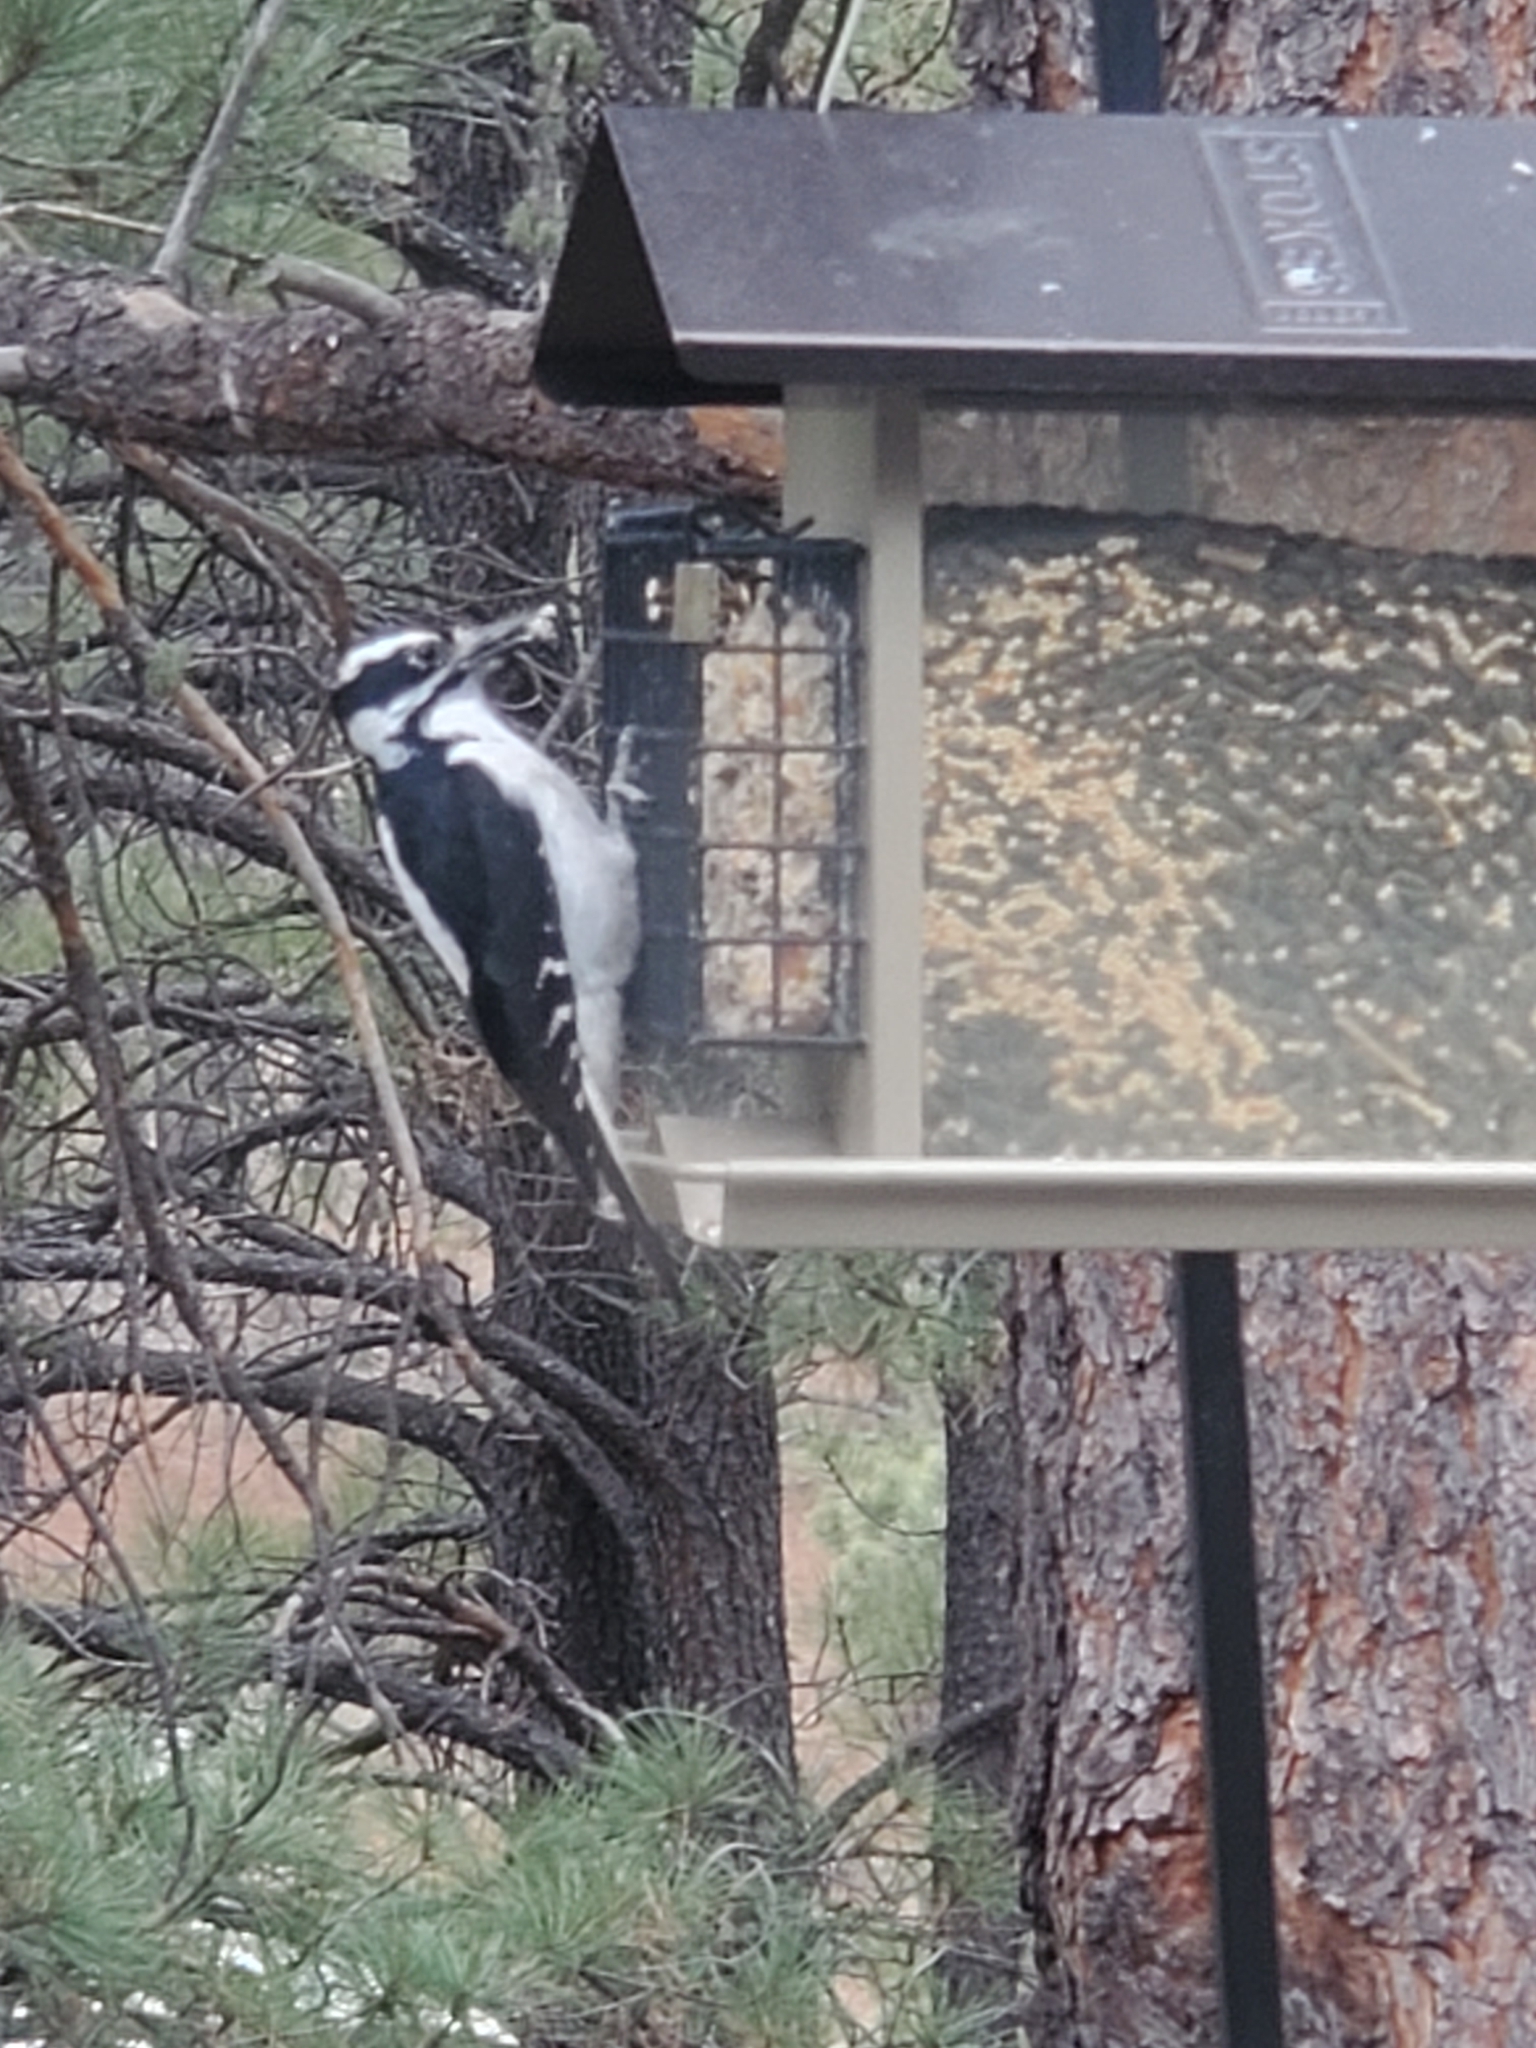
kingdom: Animalia
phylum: Chordata
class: Aves
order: Piciformes
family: Picidae
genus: Leuconotopicus
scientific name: Leuconotopicus villosus
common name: Hairy woodpecker
